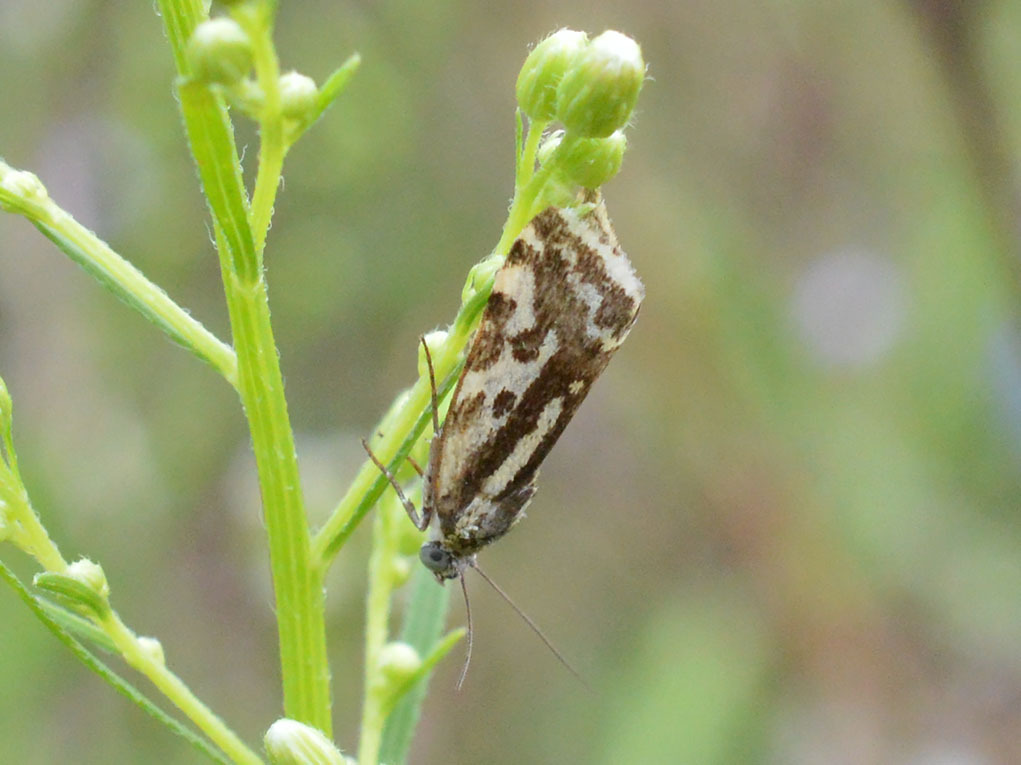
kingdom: Animalia
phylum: Arthropoda
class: Insecta
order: Lepidoptera
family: Noctuidae
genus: Acontia
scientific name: Acontia trabealis
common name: Spotted sulphur
